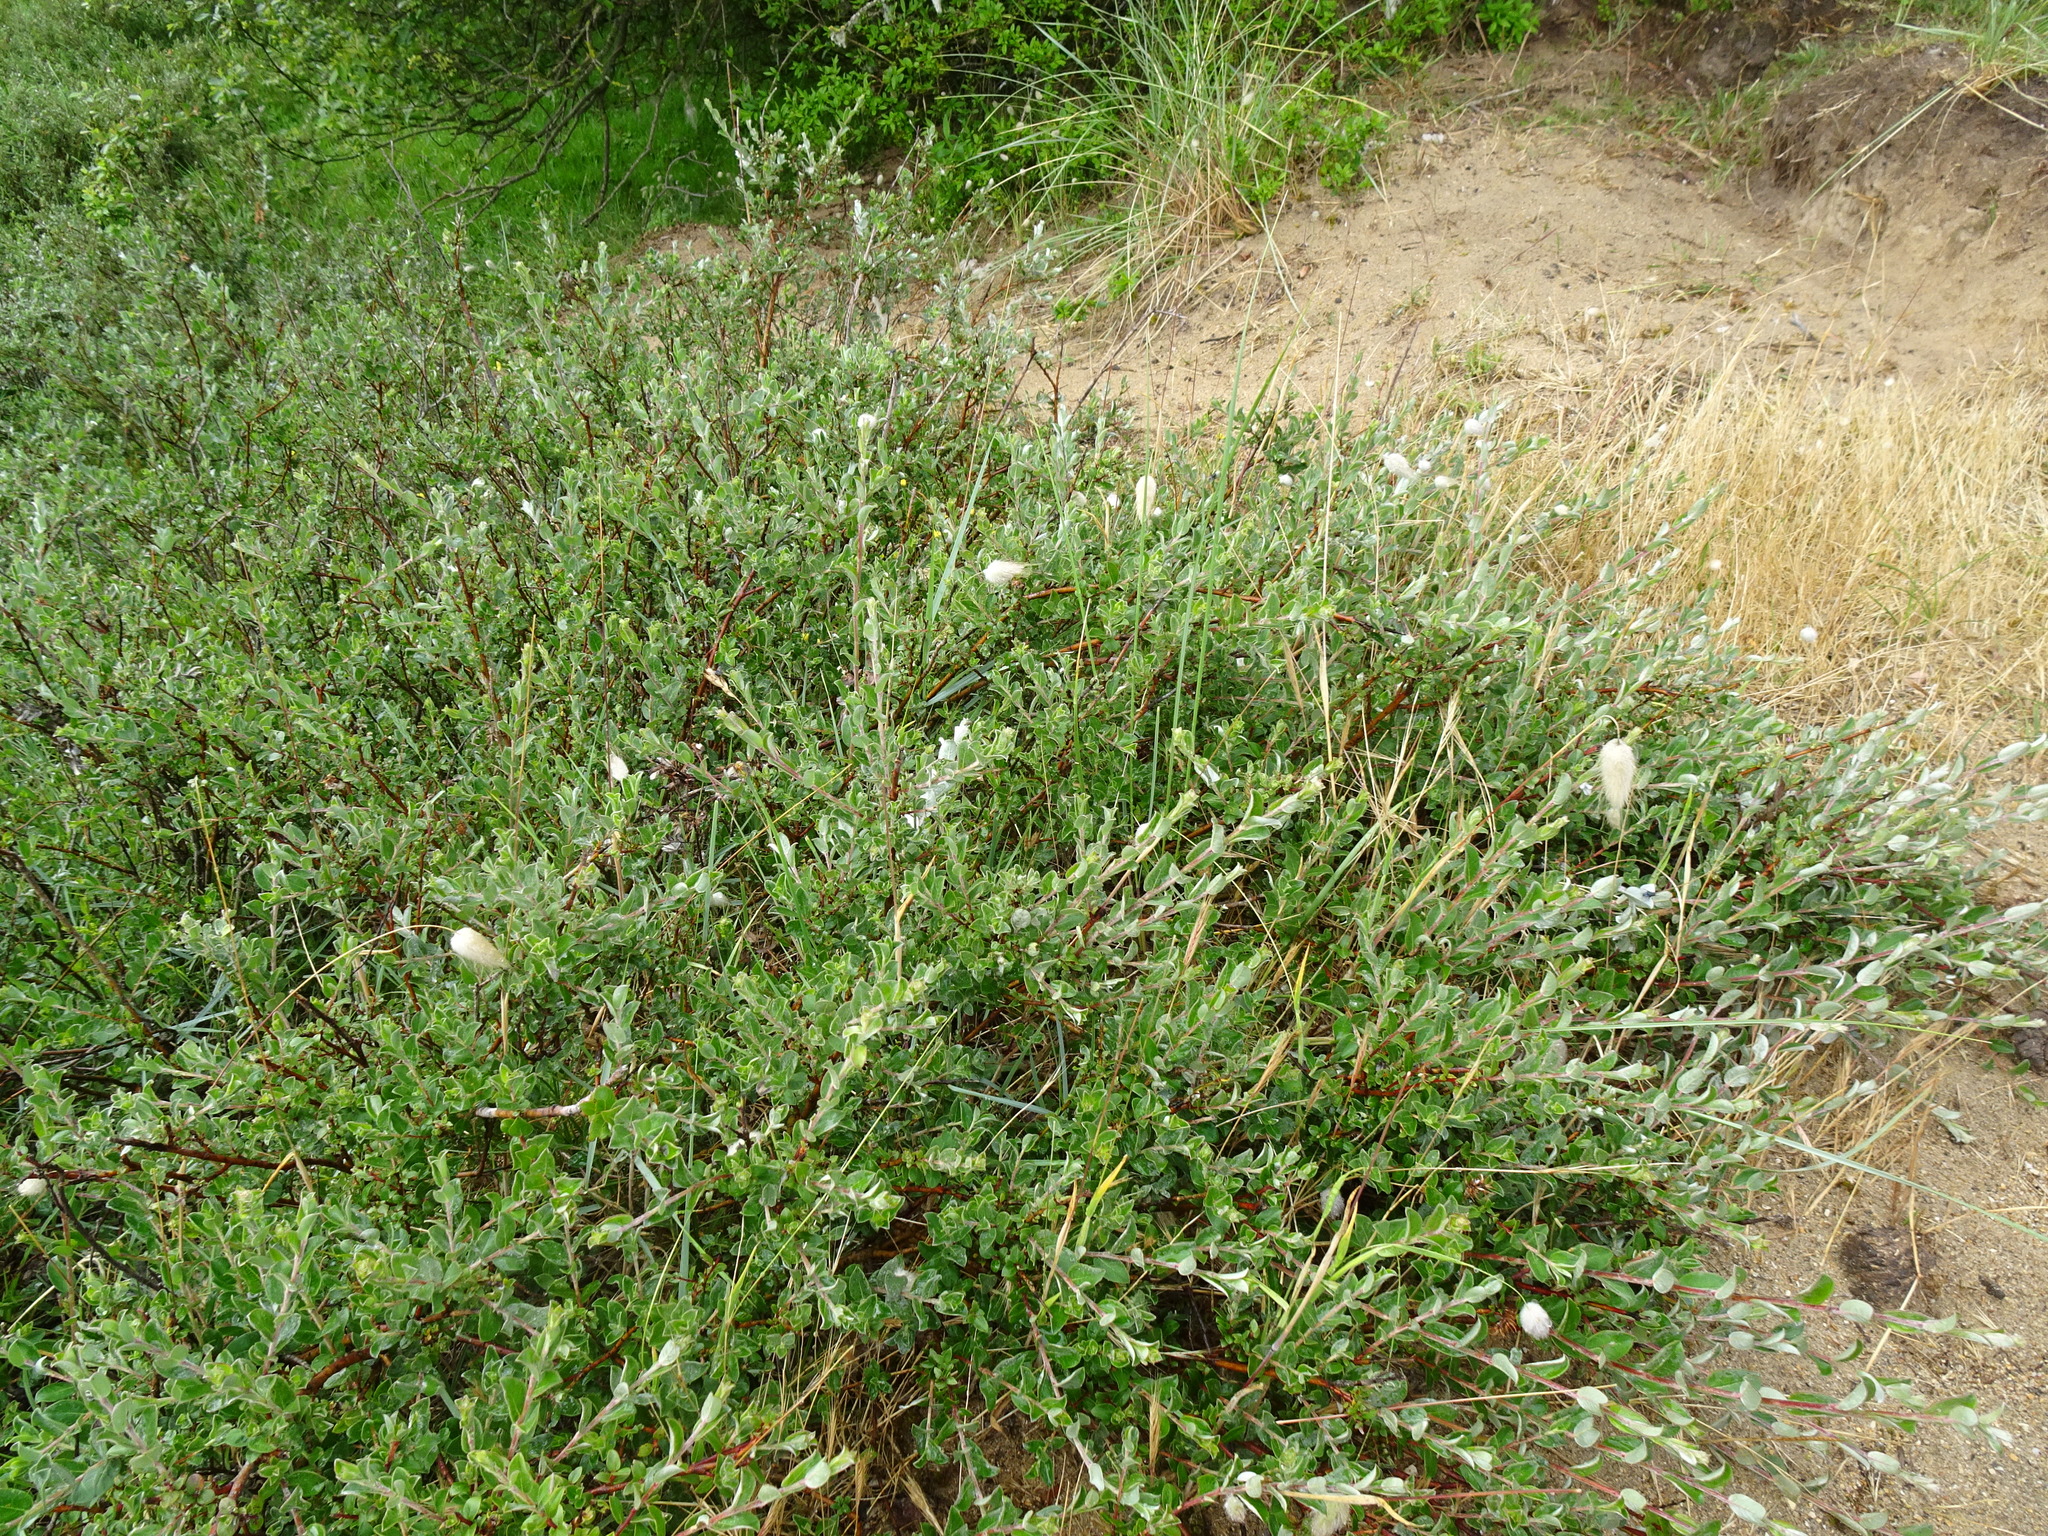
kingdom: Plantae
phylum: Tracheophyta
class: Magnoliopsida
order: Malpighiales
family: Salicaceae
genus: Salix
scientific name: Salix repens
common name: Creeping willow
